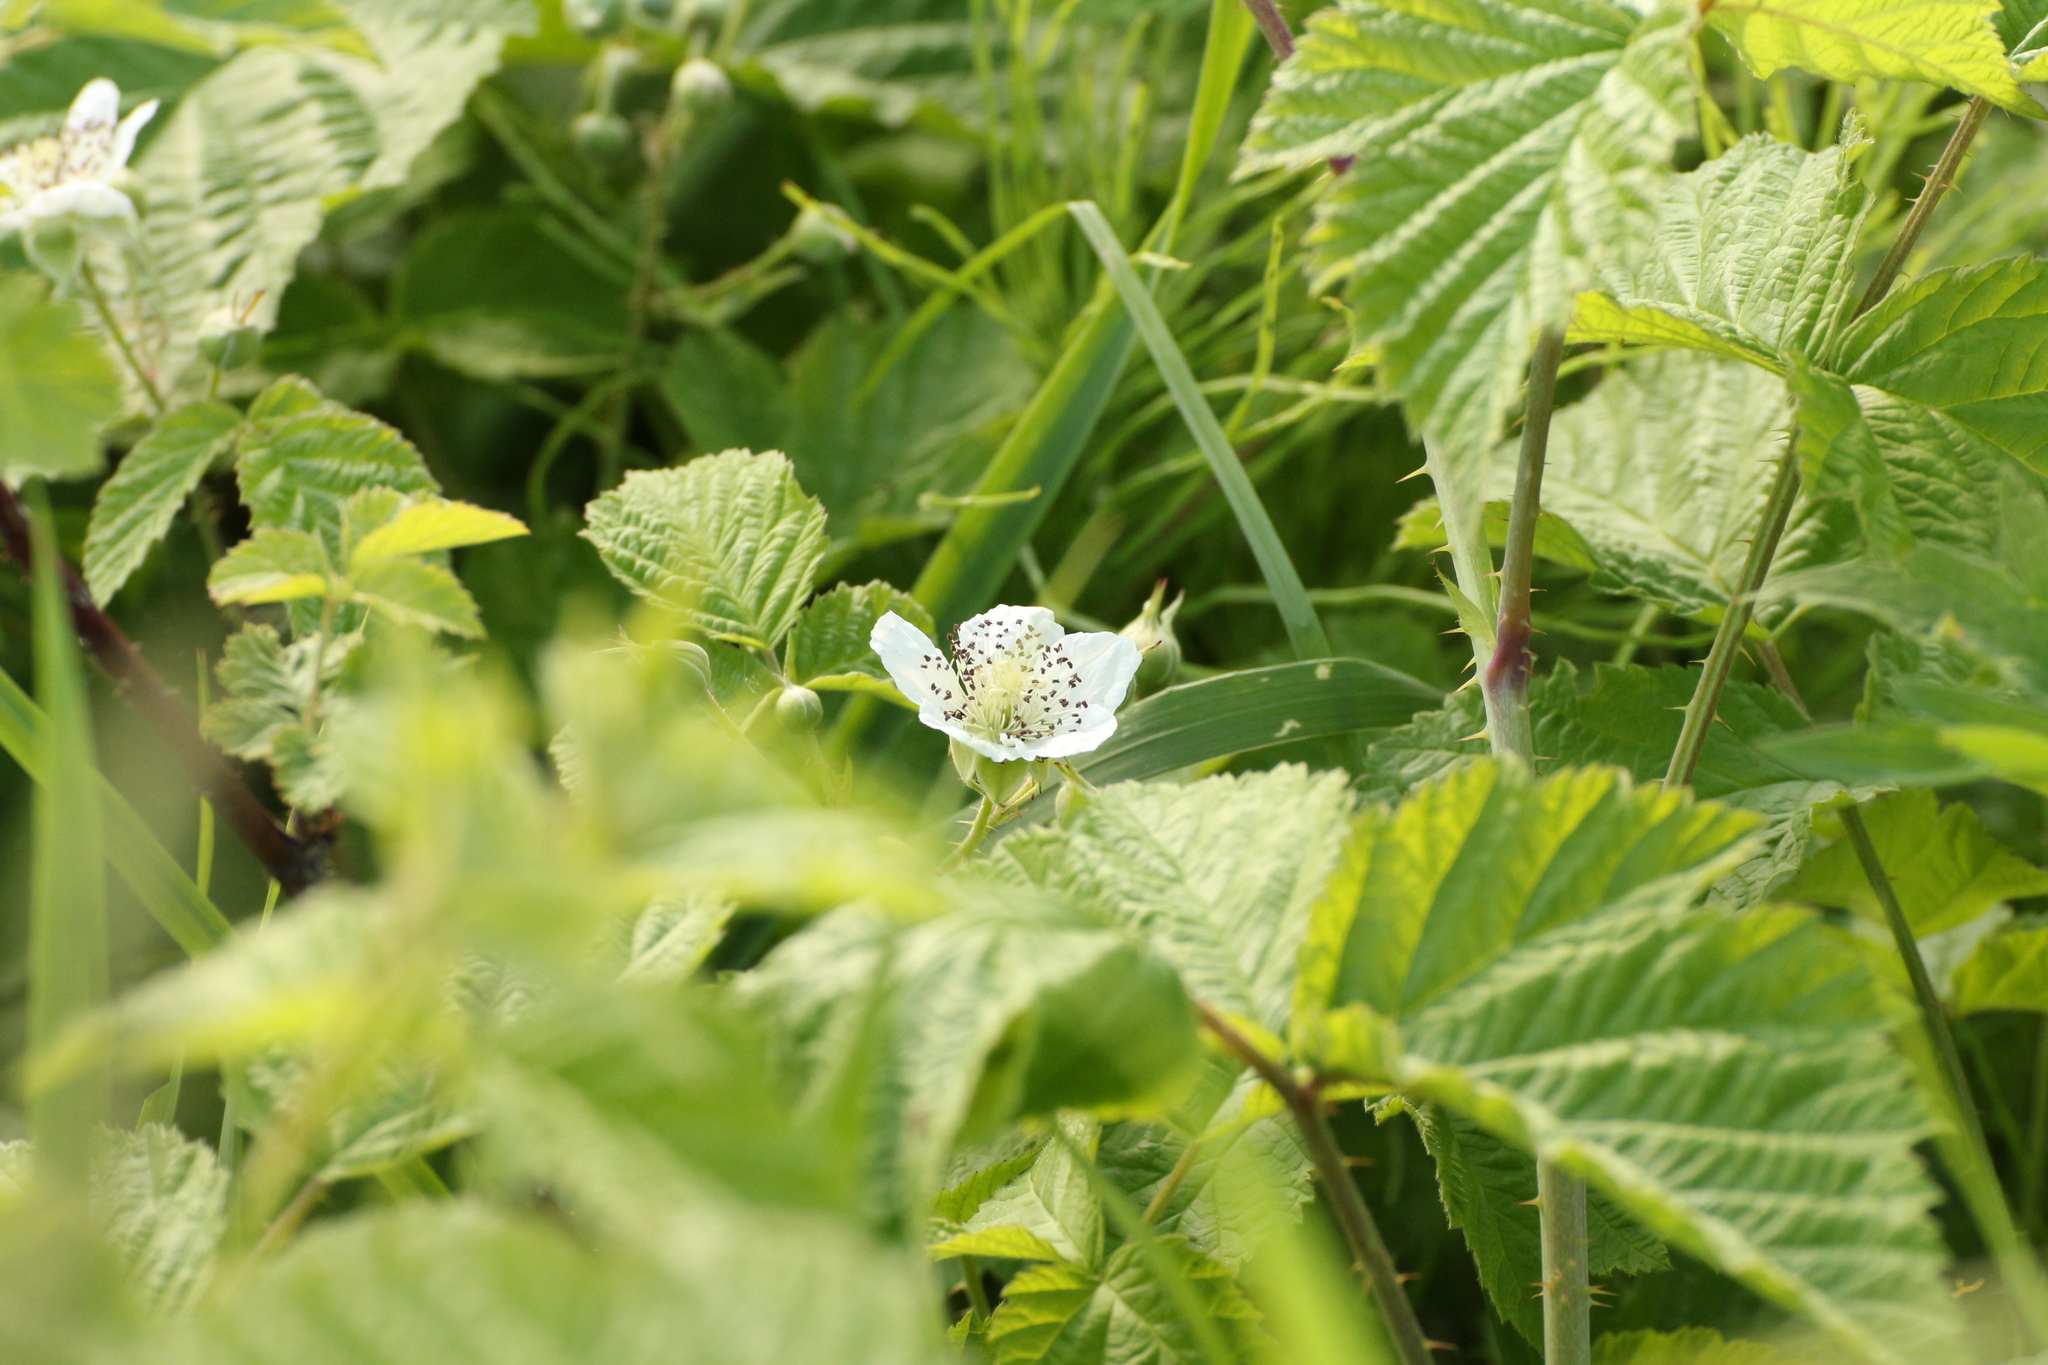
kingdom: Plantae
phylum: Tracheophyta
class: Magnoliopsida
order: Rosales
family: Rosaceae
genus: Rubus
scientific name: Rubus caesius
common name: Dewberry
